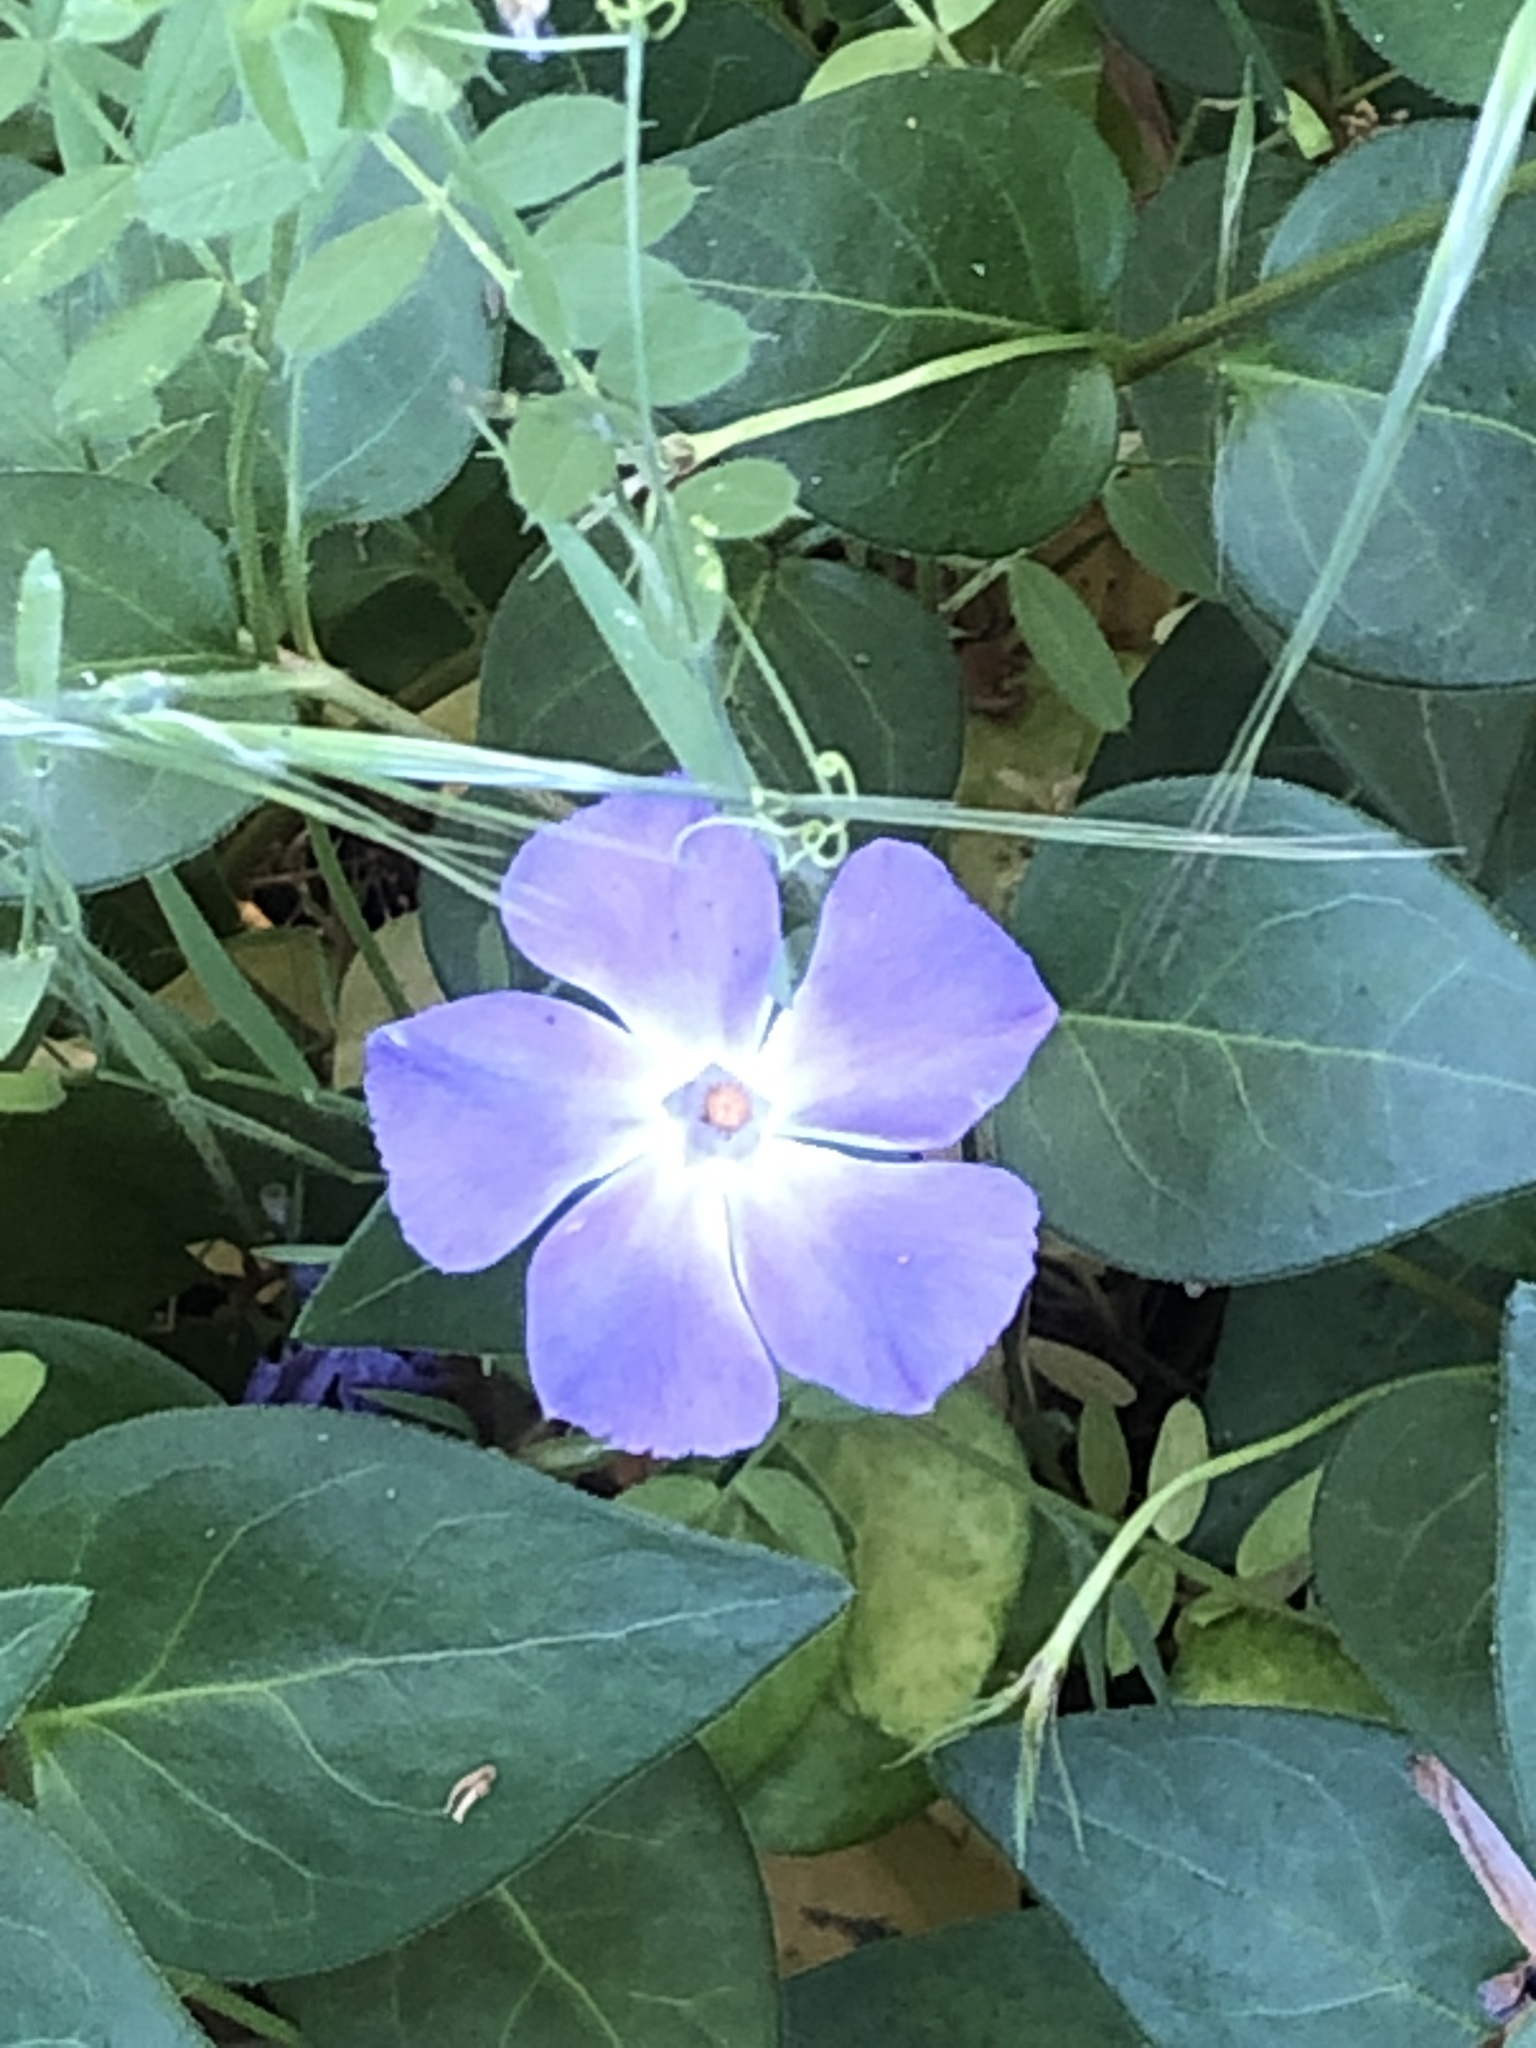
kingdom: Plantae
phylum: Tracheophyta
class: Magnoliopsida
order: Gentianales
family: Apocynaceae
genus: Vinca
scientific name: Vinca major
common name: Greater periwinkle
